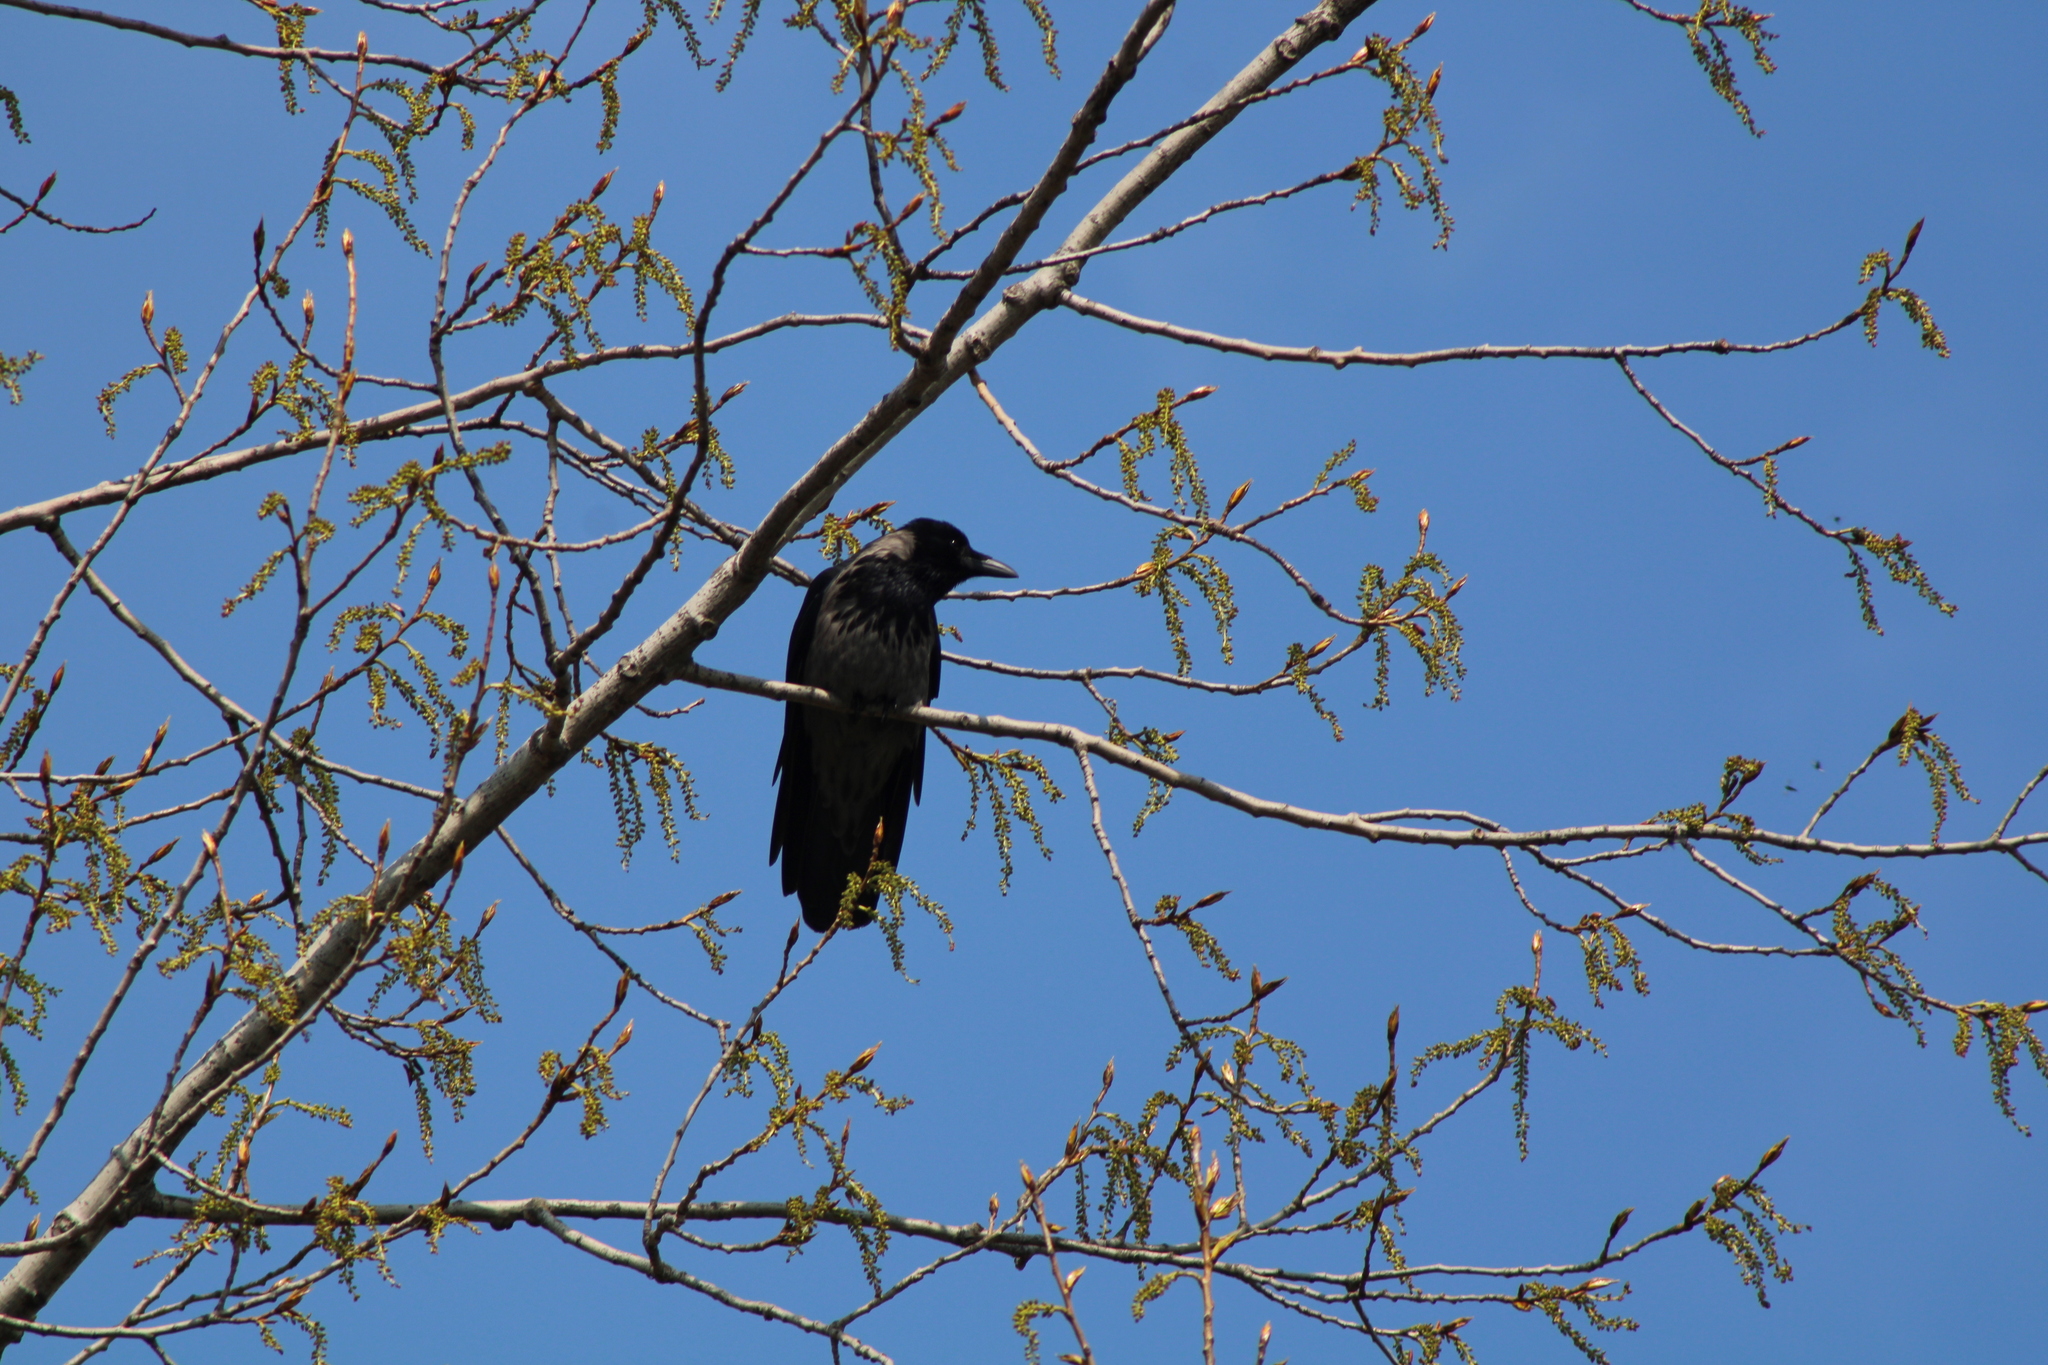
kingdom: Animalia
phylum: Chordata
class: Aves
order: Passeriformes
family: Corvidae
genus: Corvus
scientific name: Corvus
